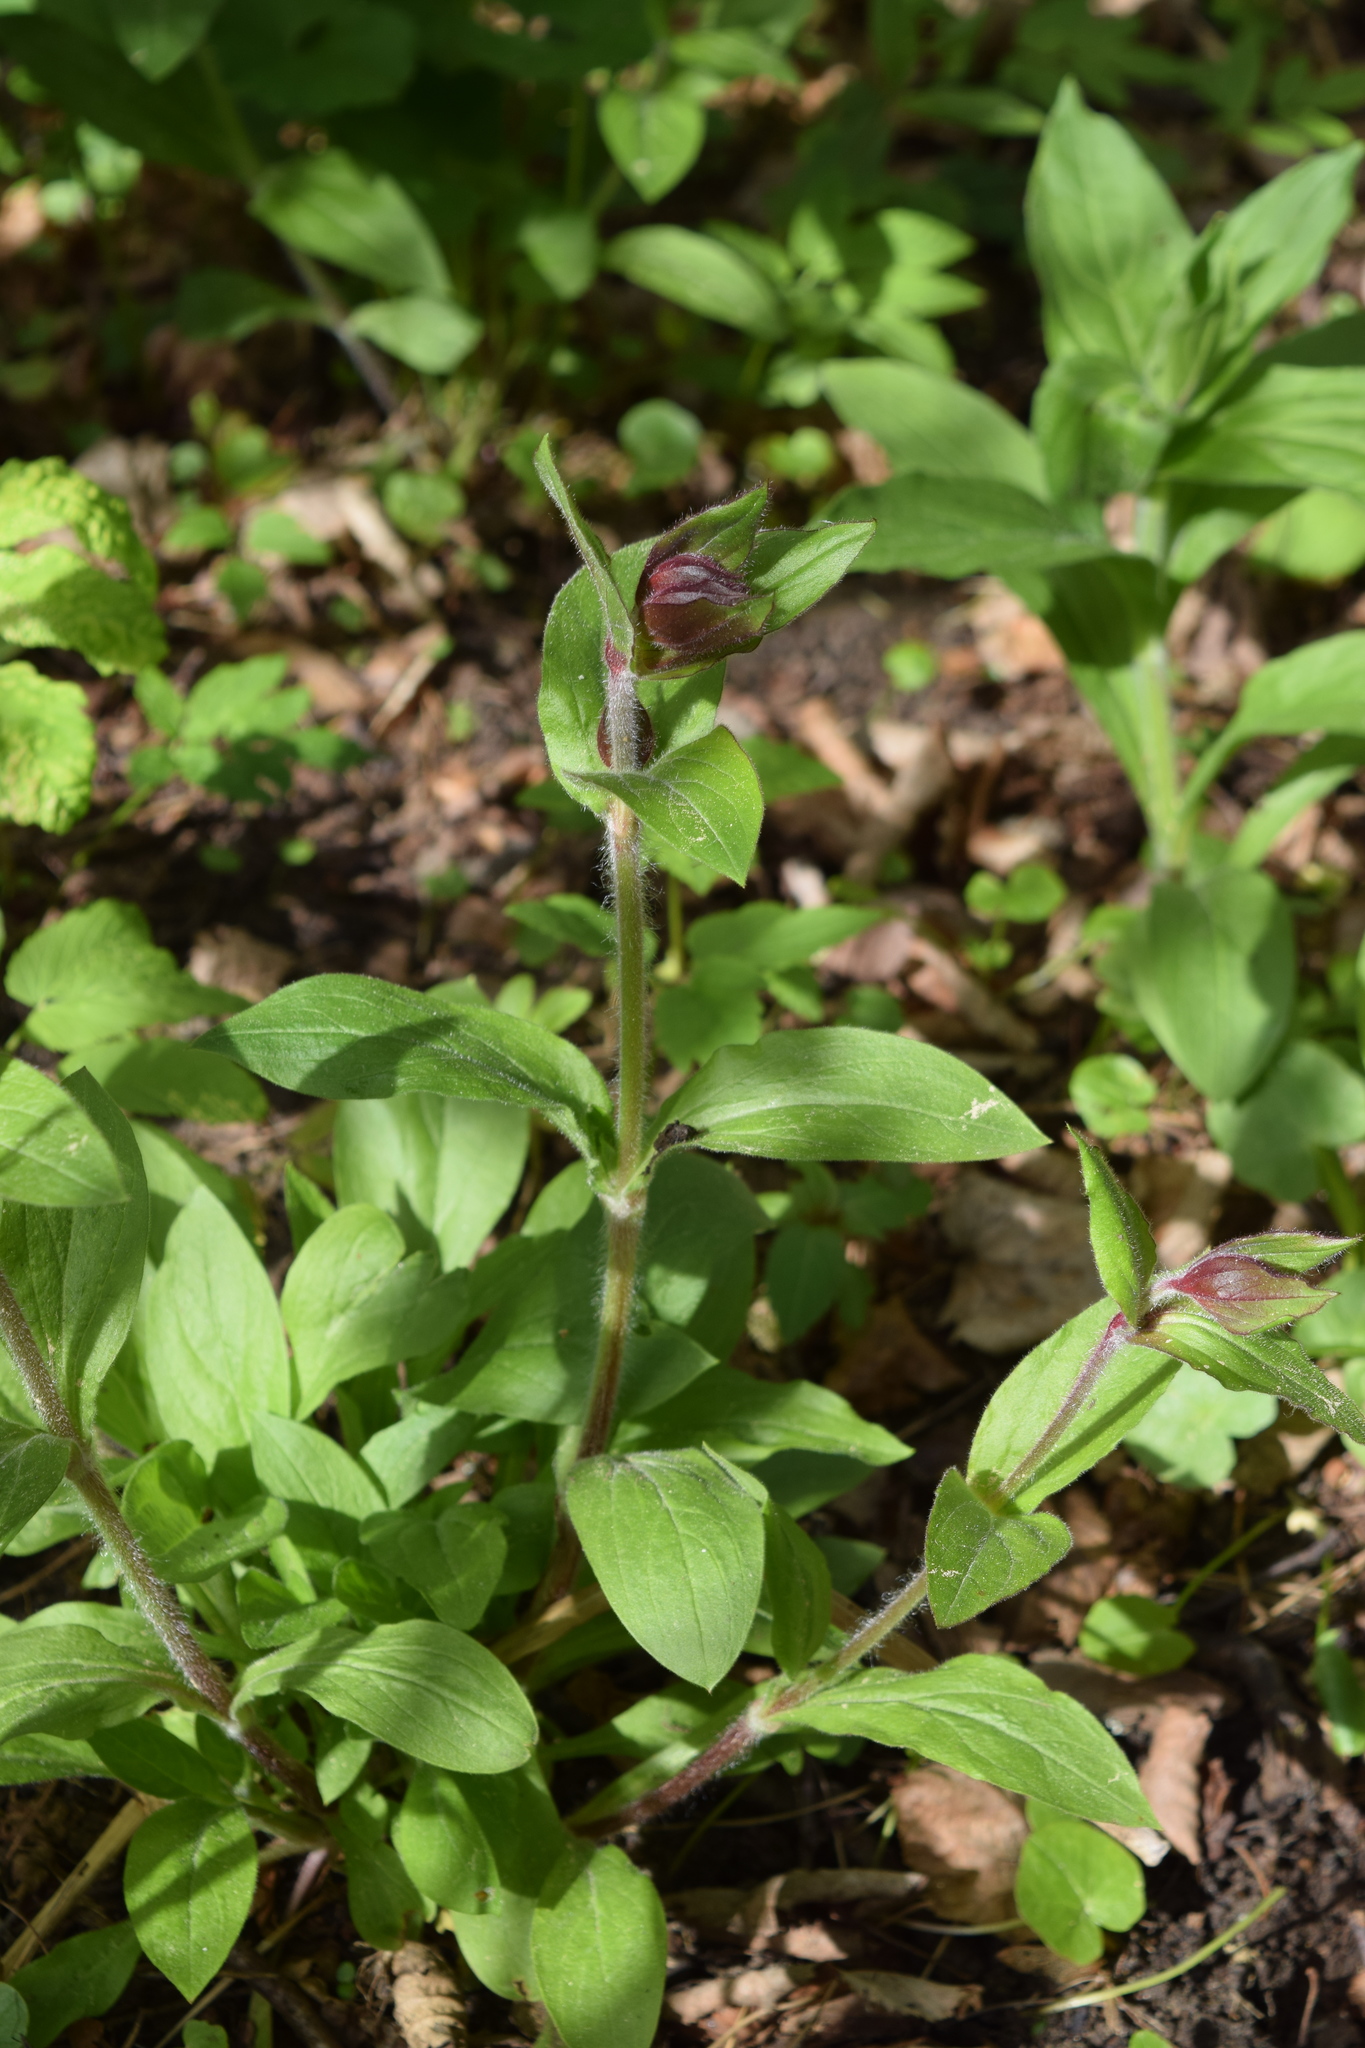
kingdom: Plantae
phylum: Tracheophyta
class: Magnoliopsida
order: Caryophyllales
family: Caryophyllaceae
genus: Silene
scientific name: Silene dioica
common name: Red campion
